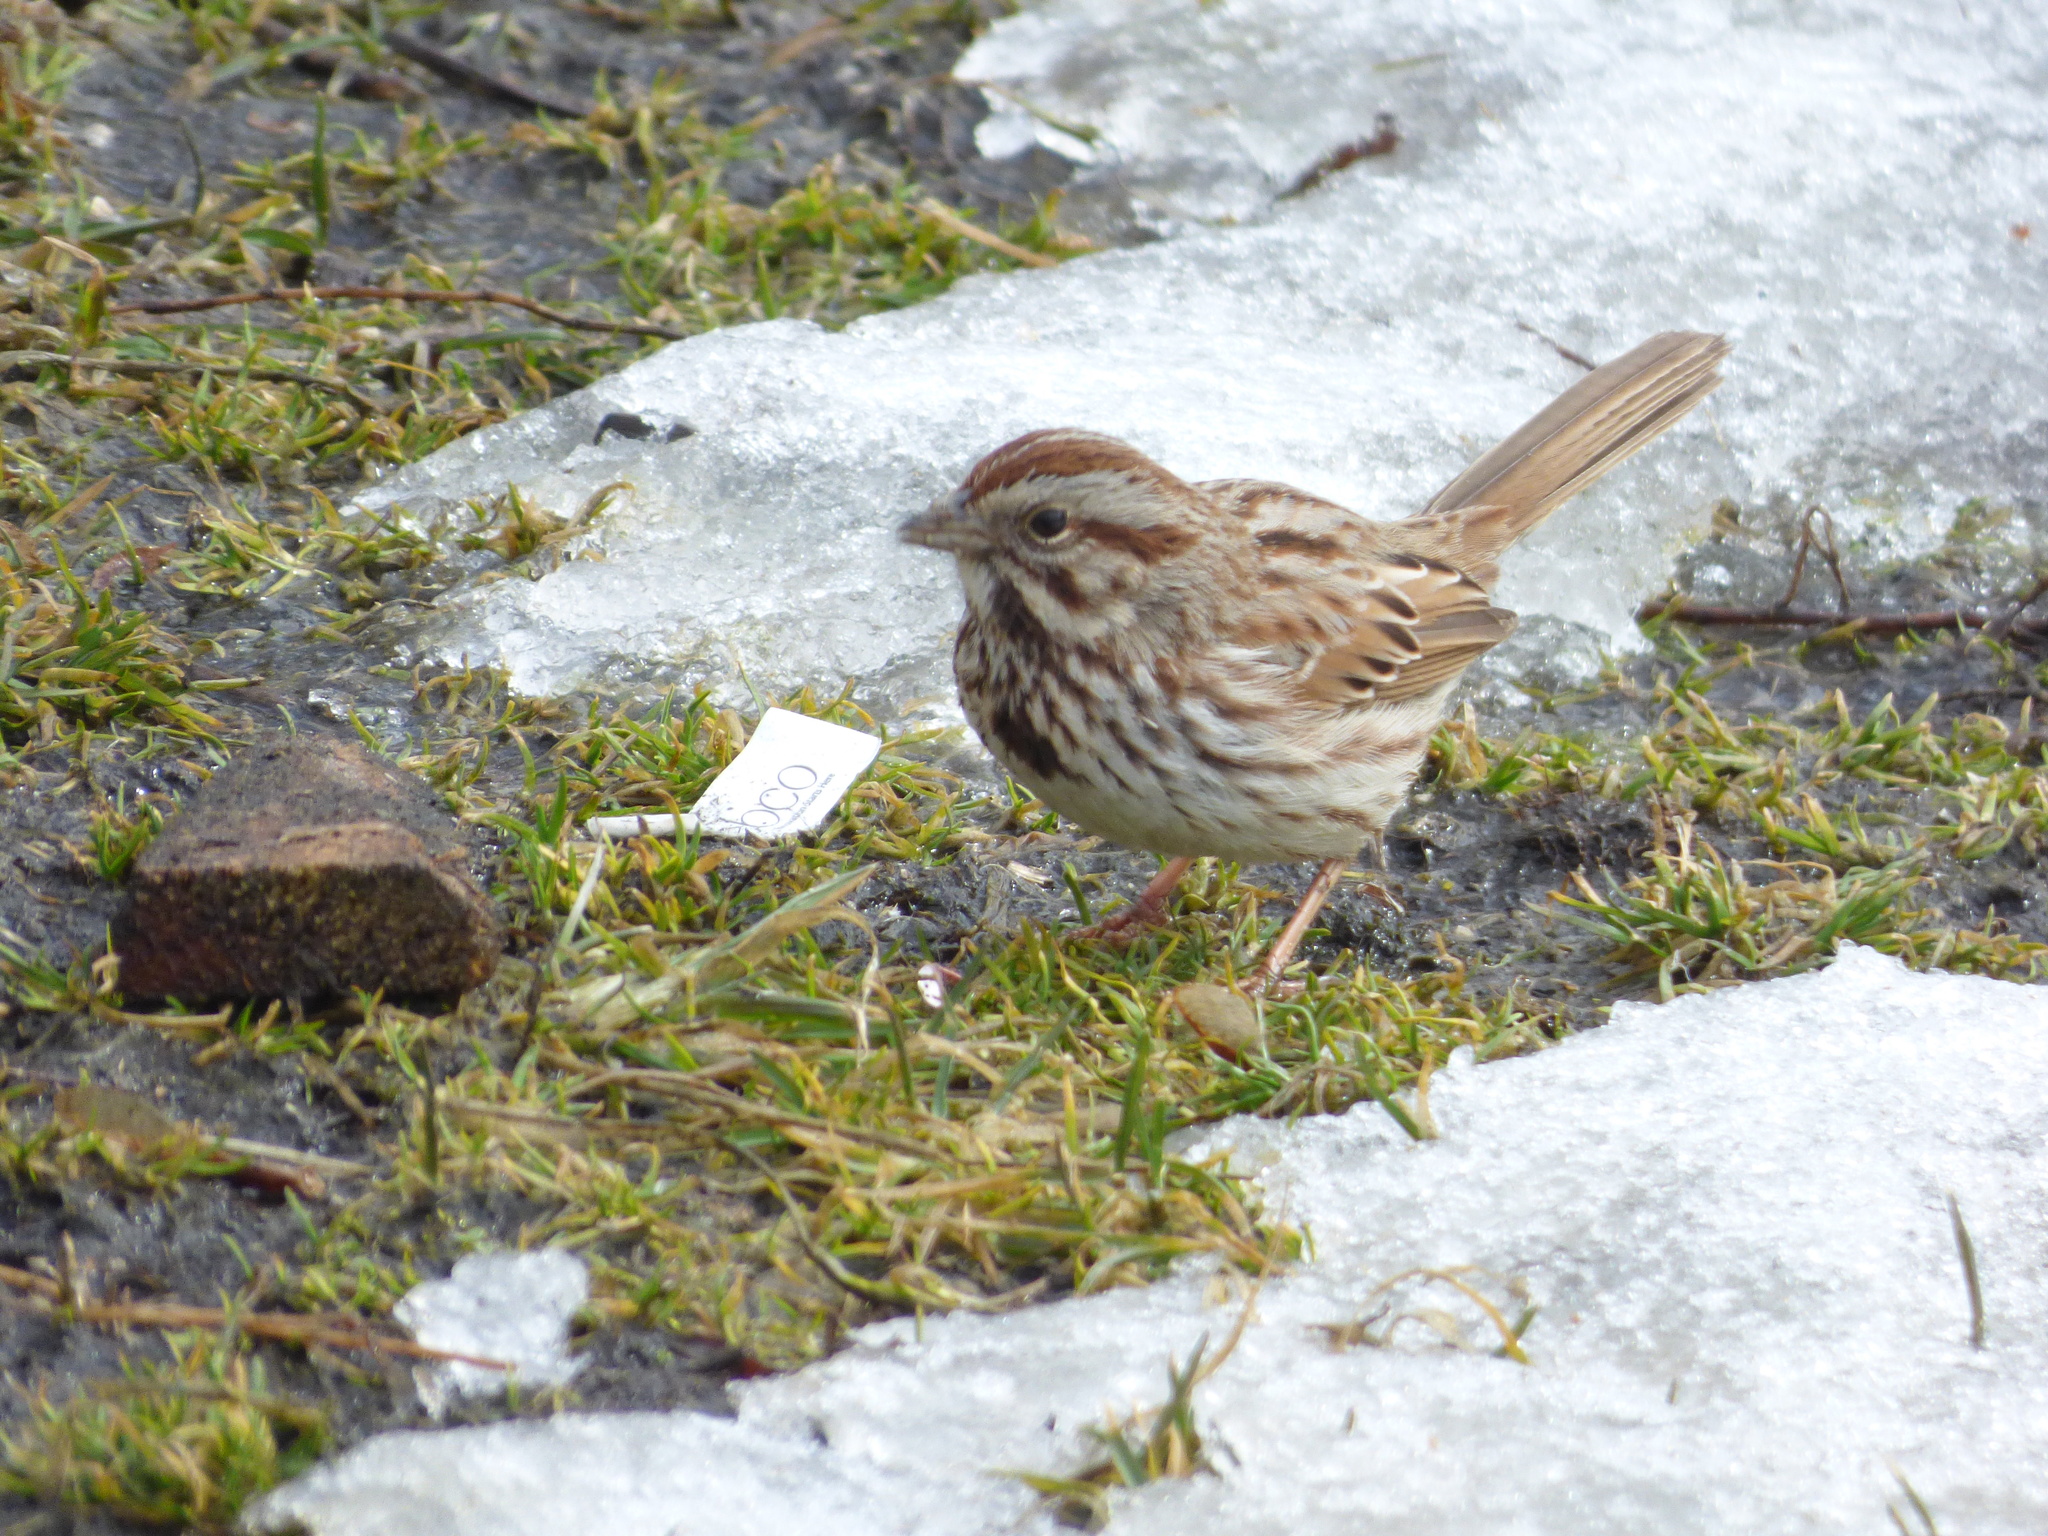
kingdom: Animalia
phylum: Chordata
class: Aves
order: Passeriformes
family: Passerellidae
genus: Melospiza
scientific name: Melospiza melodia
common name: Song sparrow
